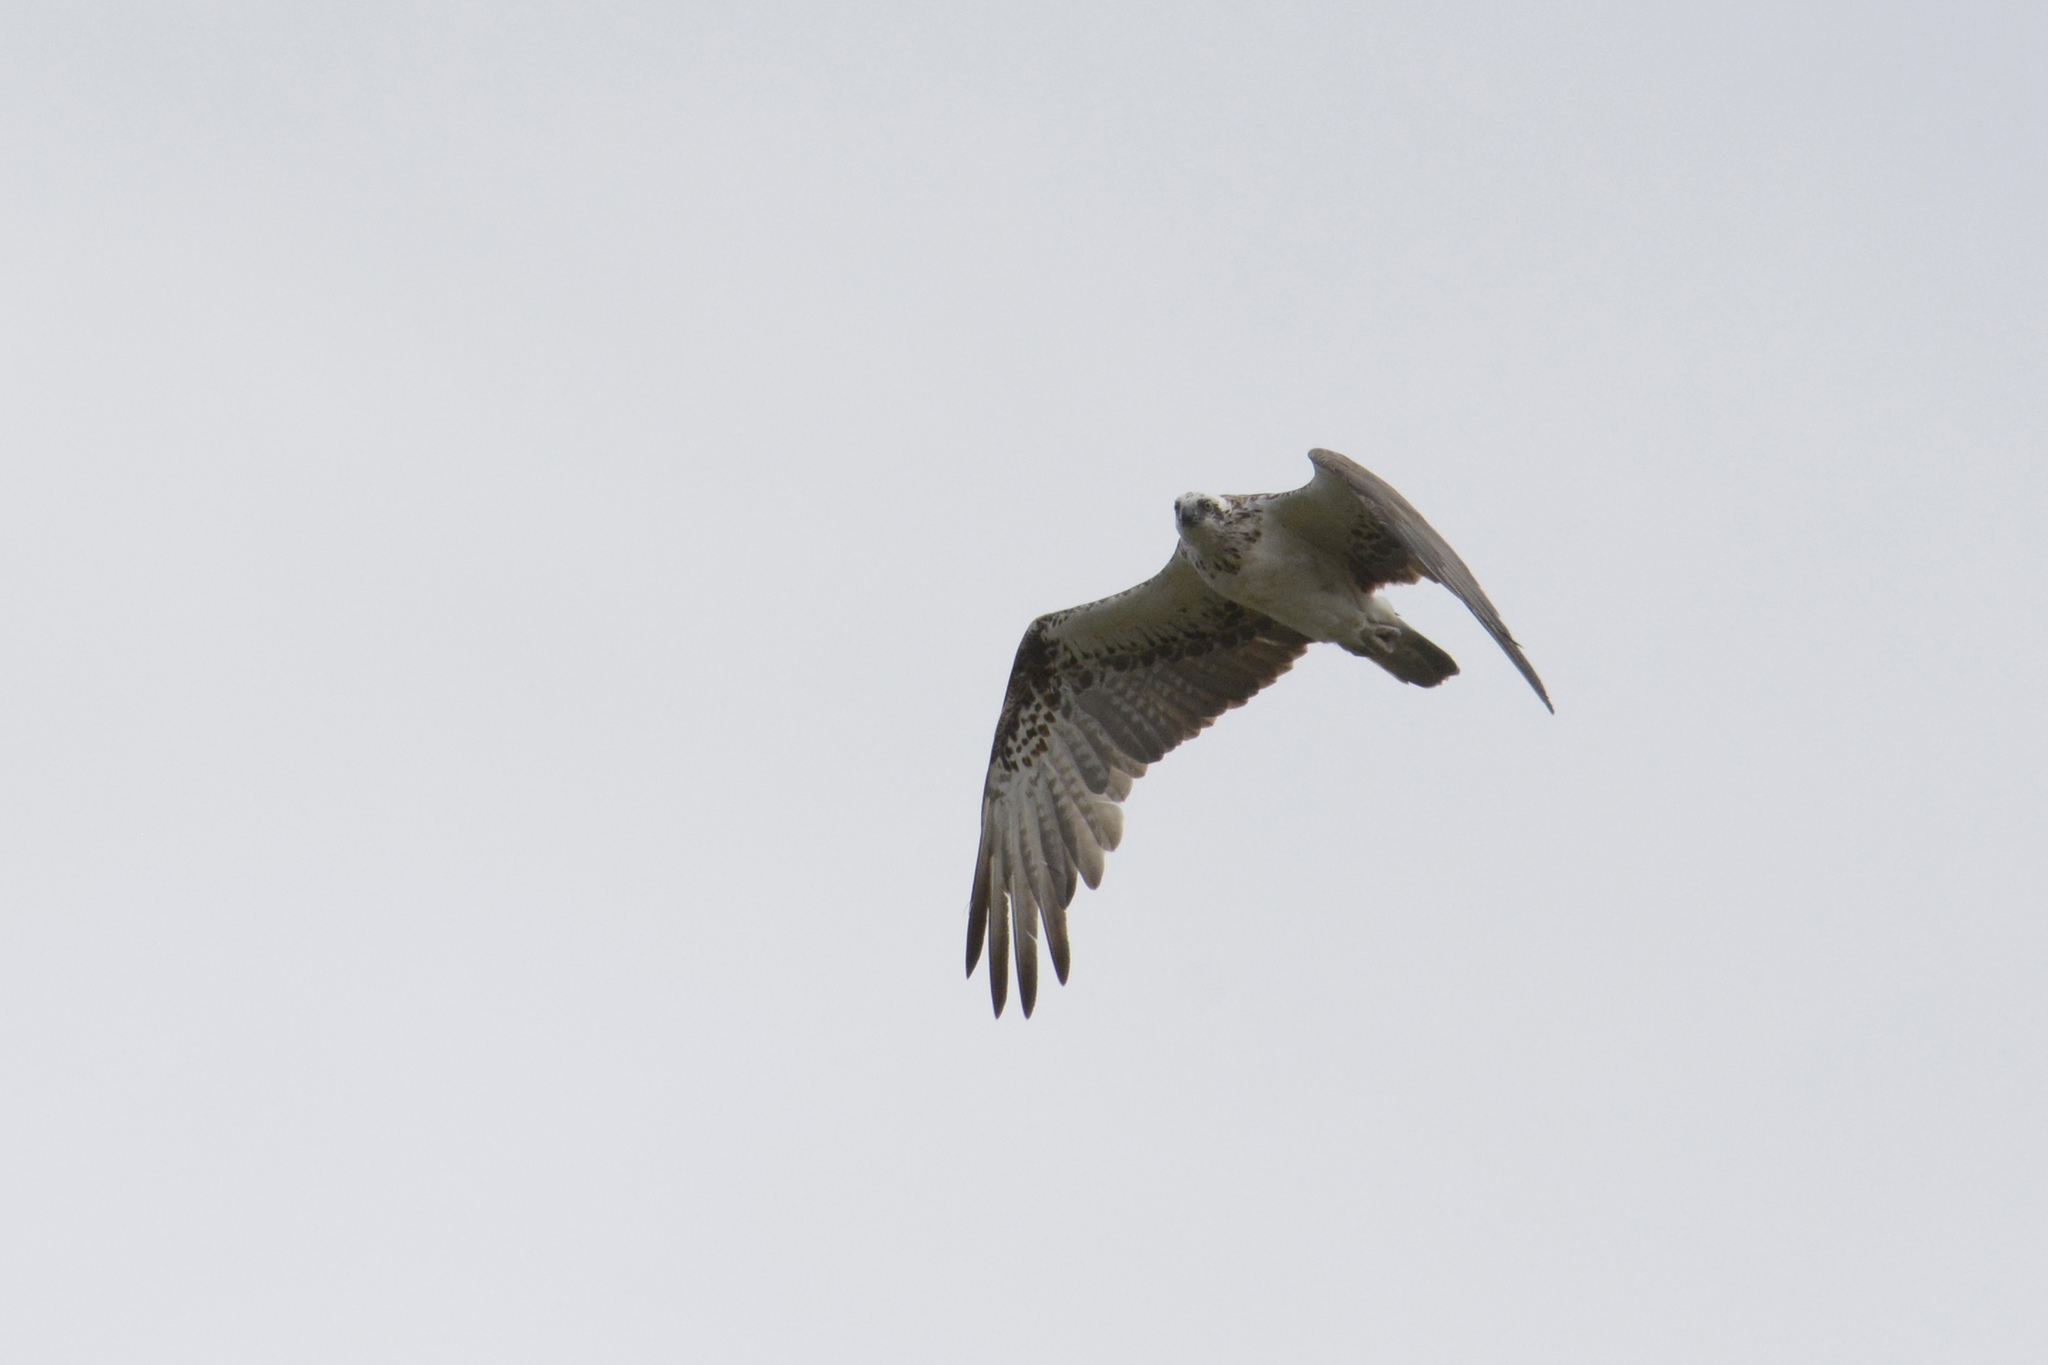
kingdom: Animalia
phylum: Chordata
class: Aves
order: Accipitriformes
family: Pandionidae
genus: Pandion
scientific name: Pandion cristatus
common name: Eastern osprey
